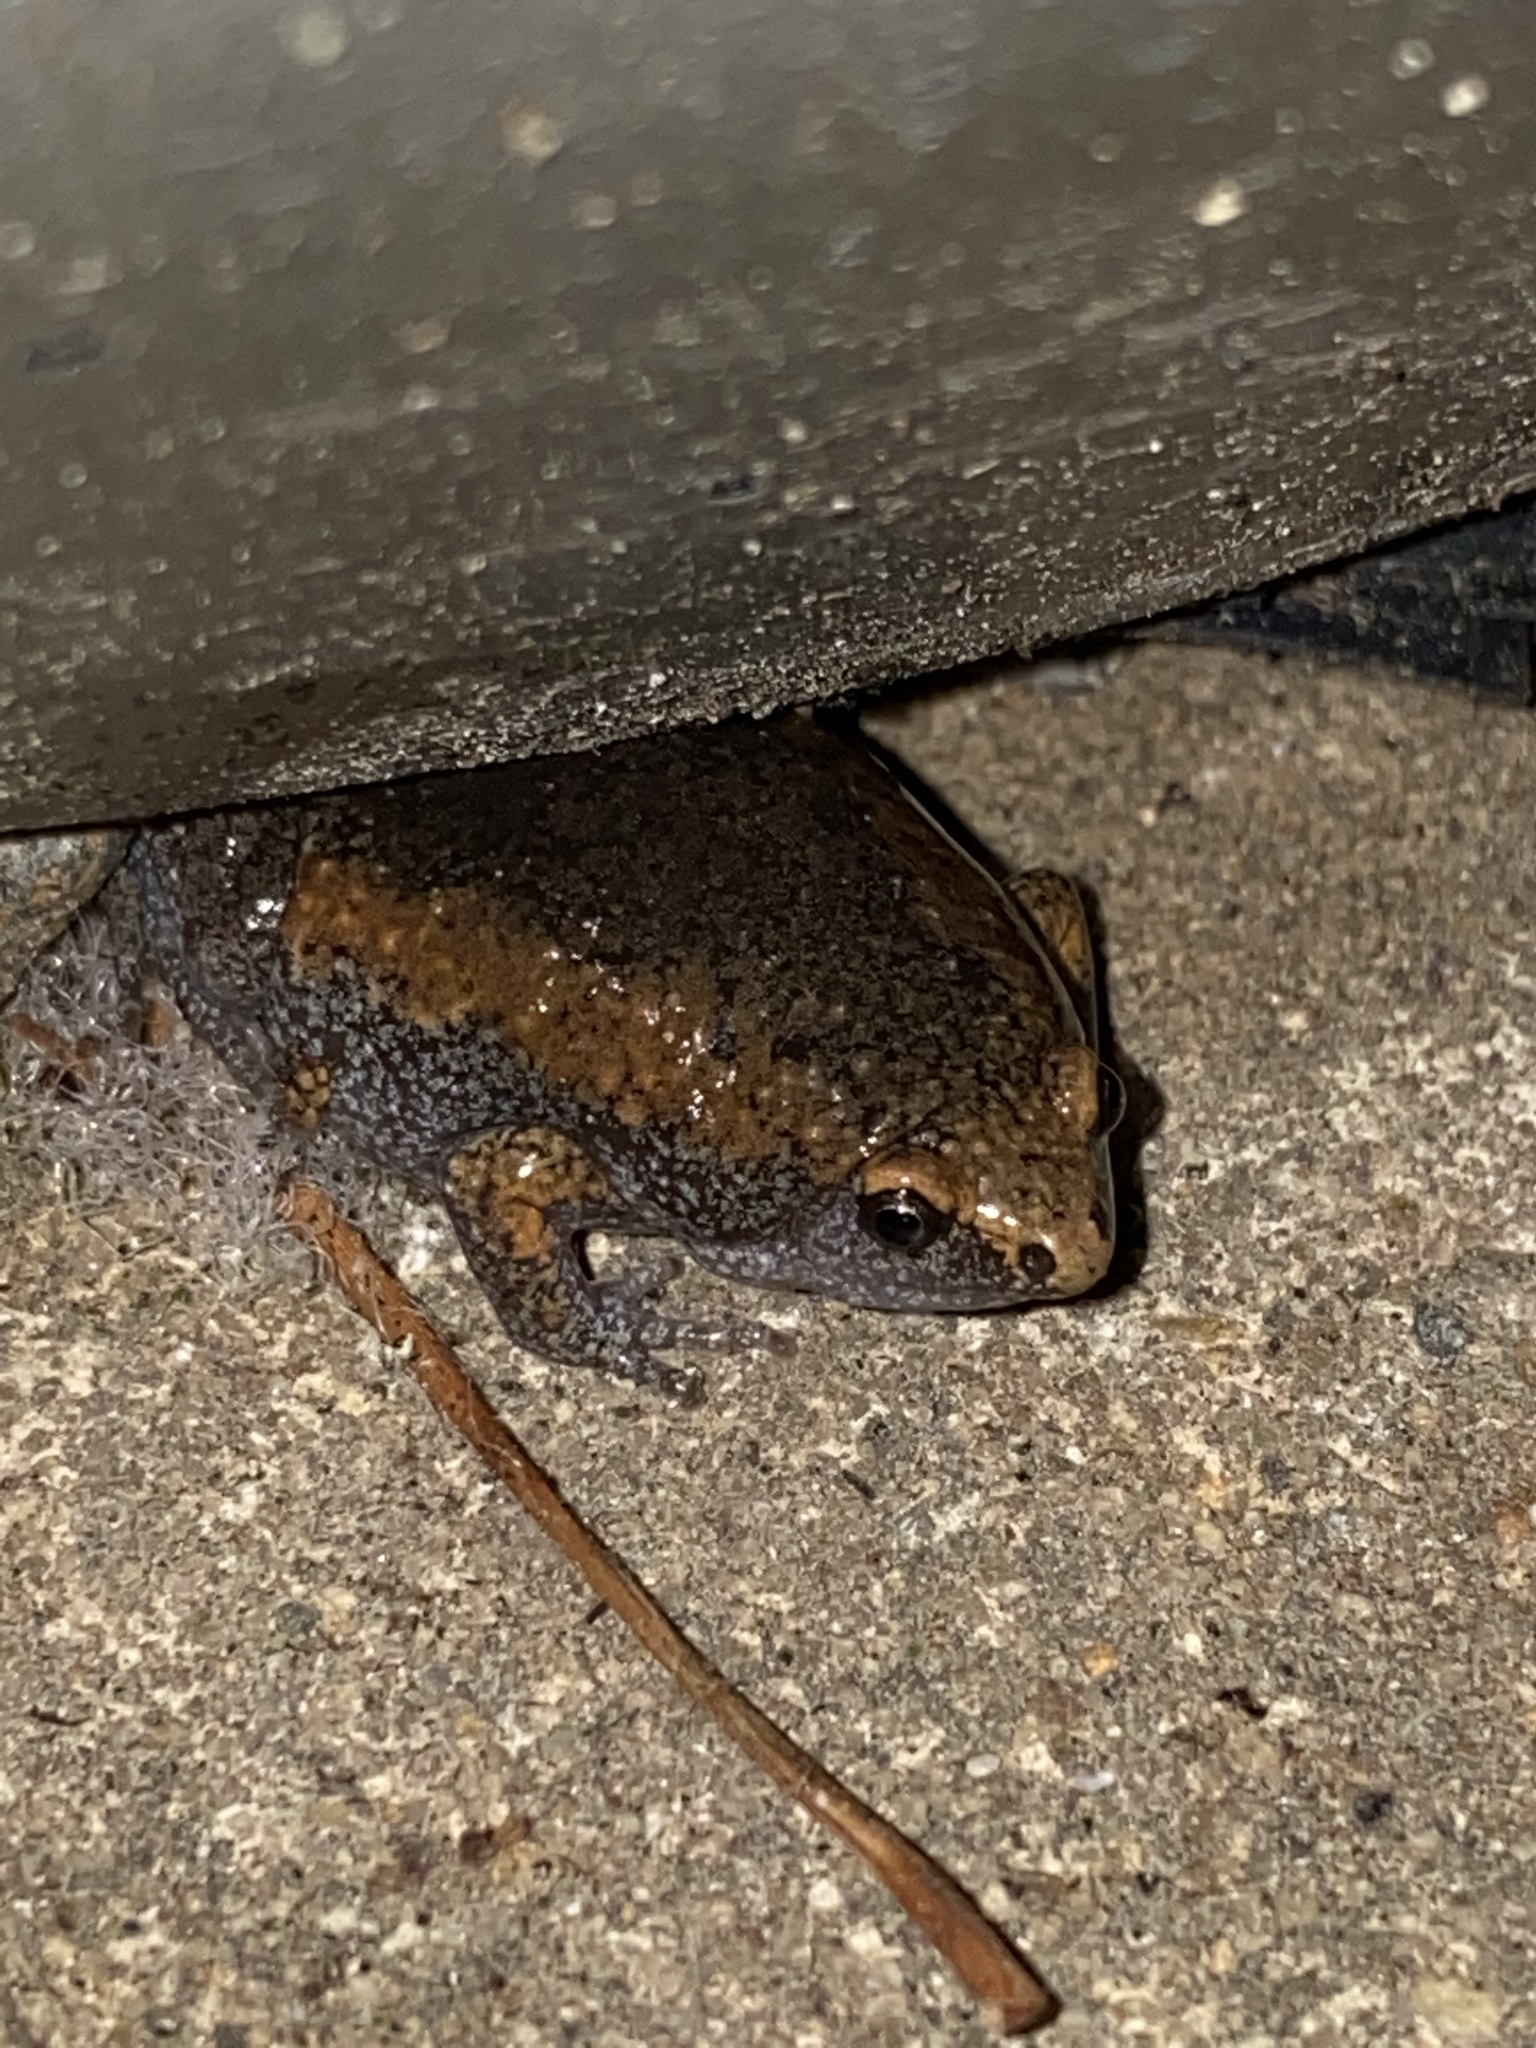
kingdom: Animalia
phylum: Chordata
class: Amphibia
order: Anura
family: Microhylidae
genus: Gastrophryne
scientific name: Gastrophryne carolinensis
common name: Eastern narrowmouth toad
